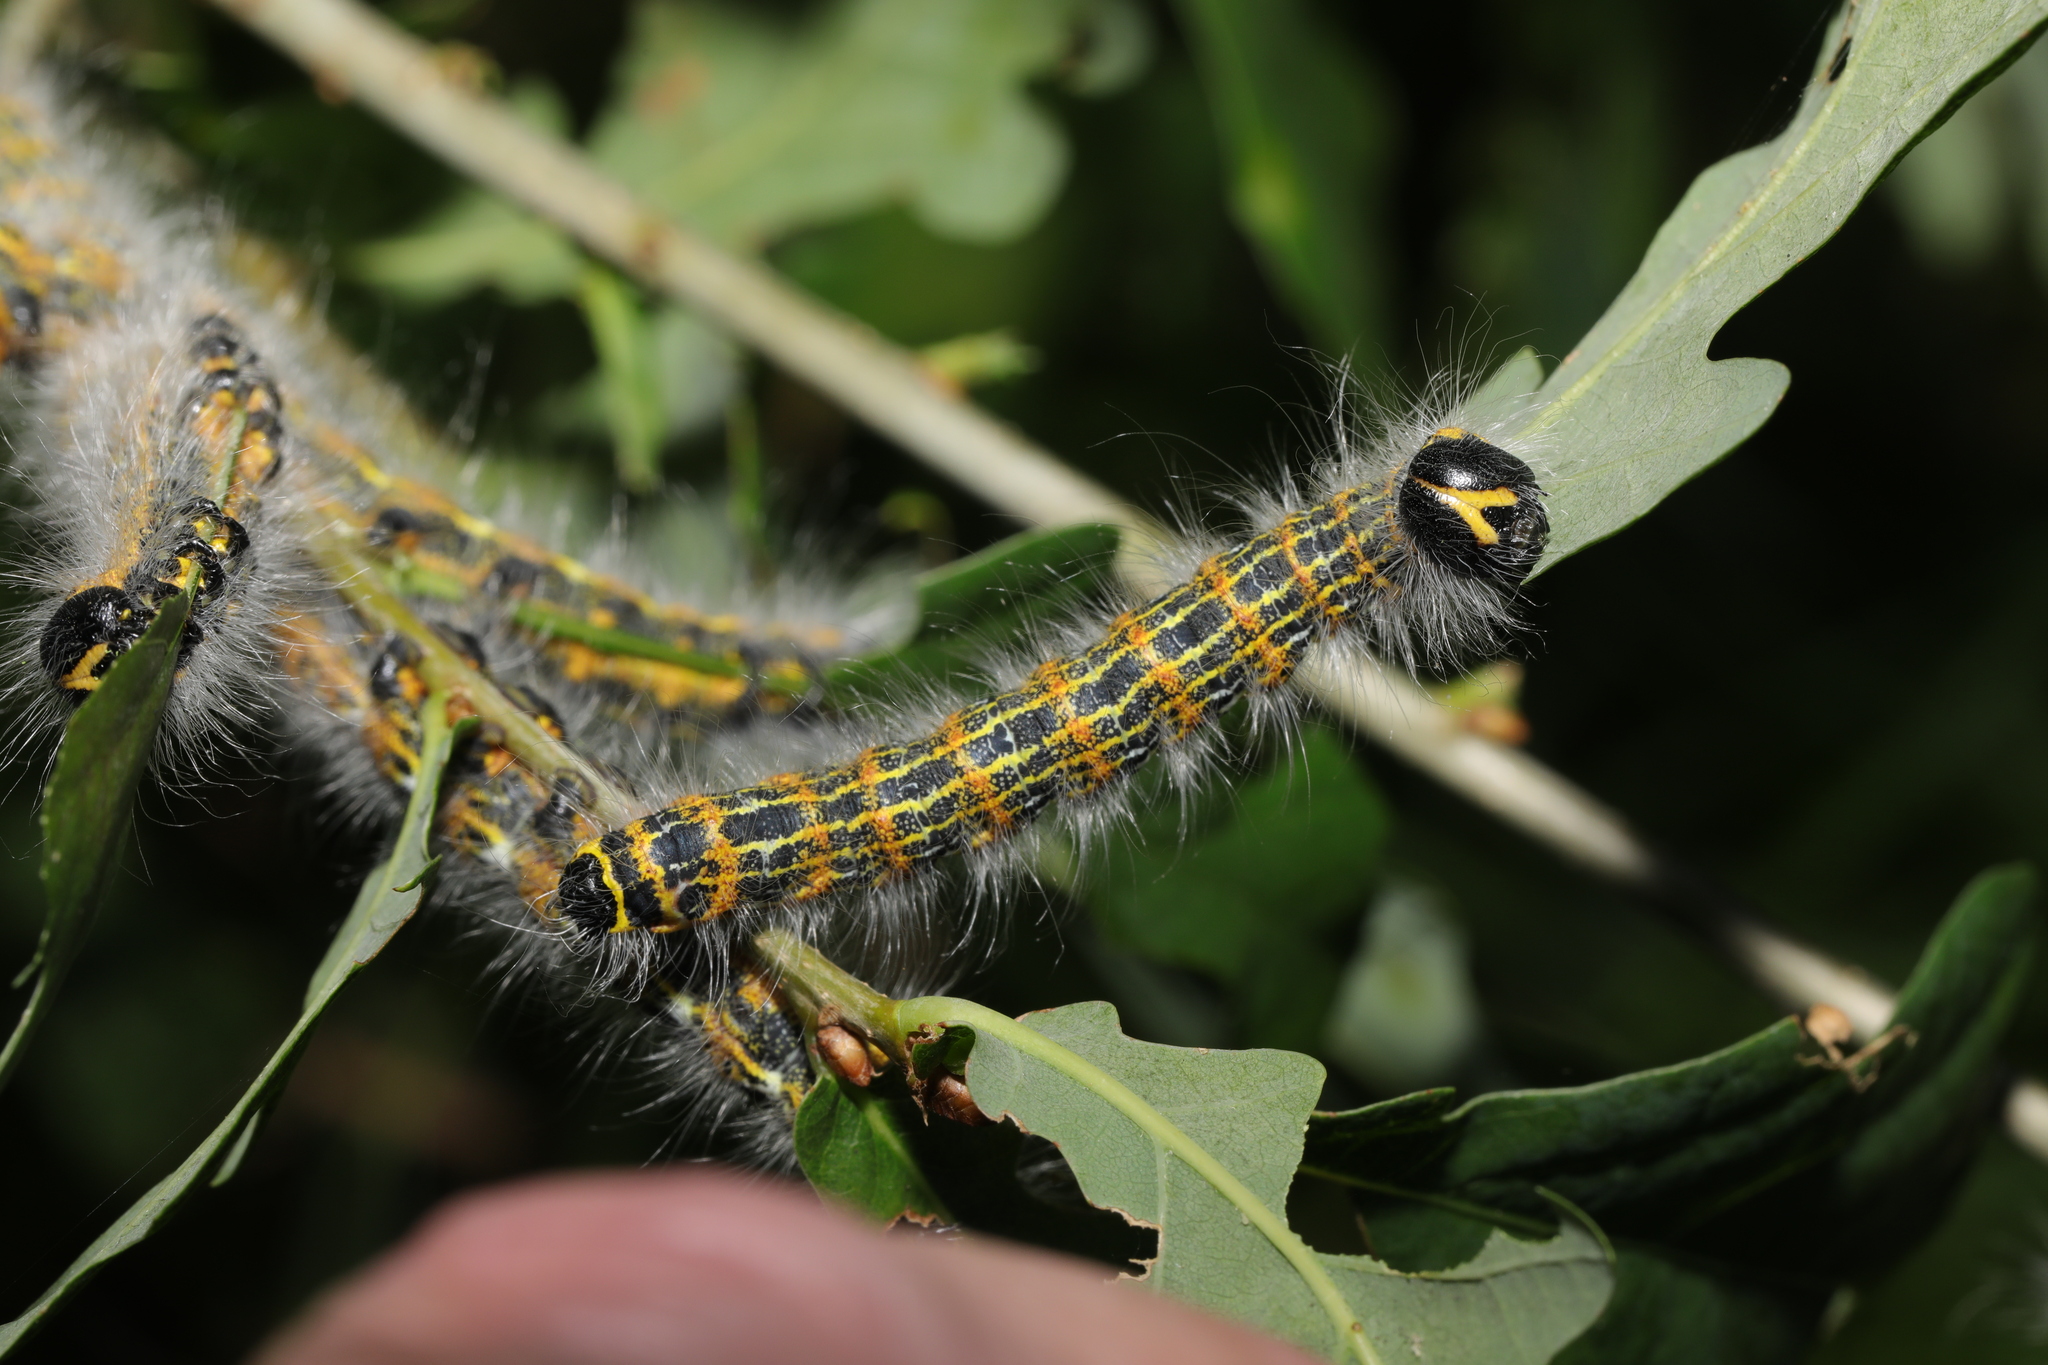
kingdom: Animalia
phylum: Arthropoda
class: Insecta
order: Lepidoptera
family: Notodontidae
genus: Phalera
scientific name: Phalera bucephala
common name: Buff-tip
